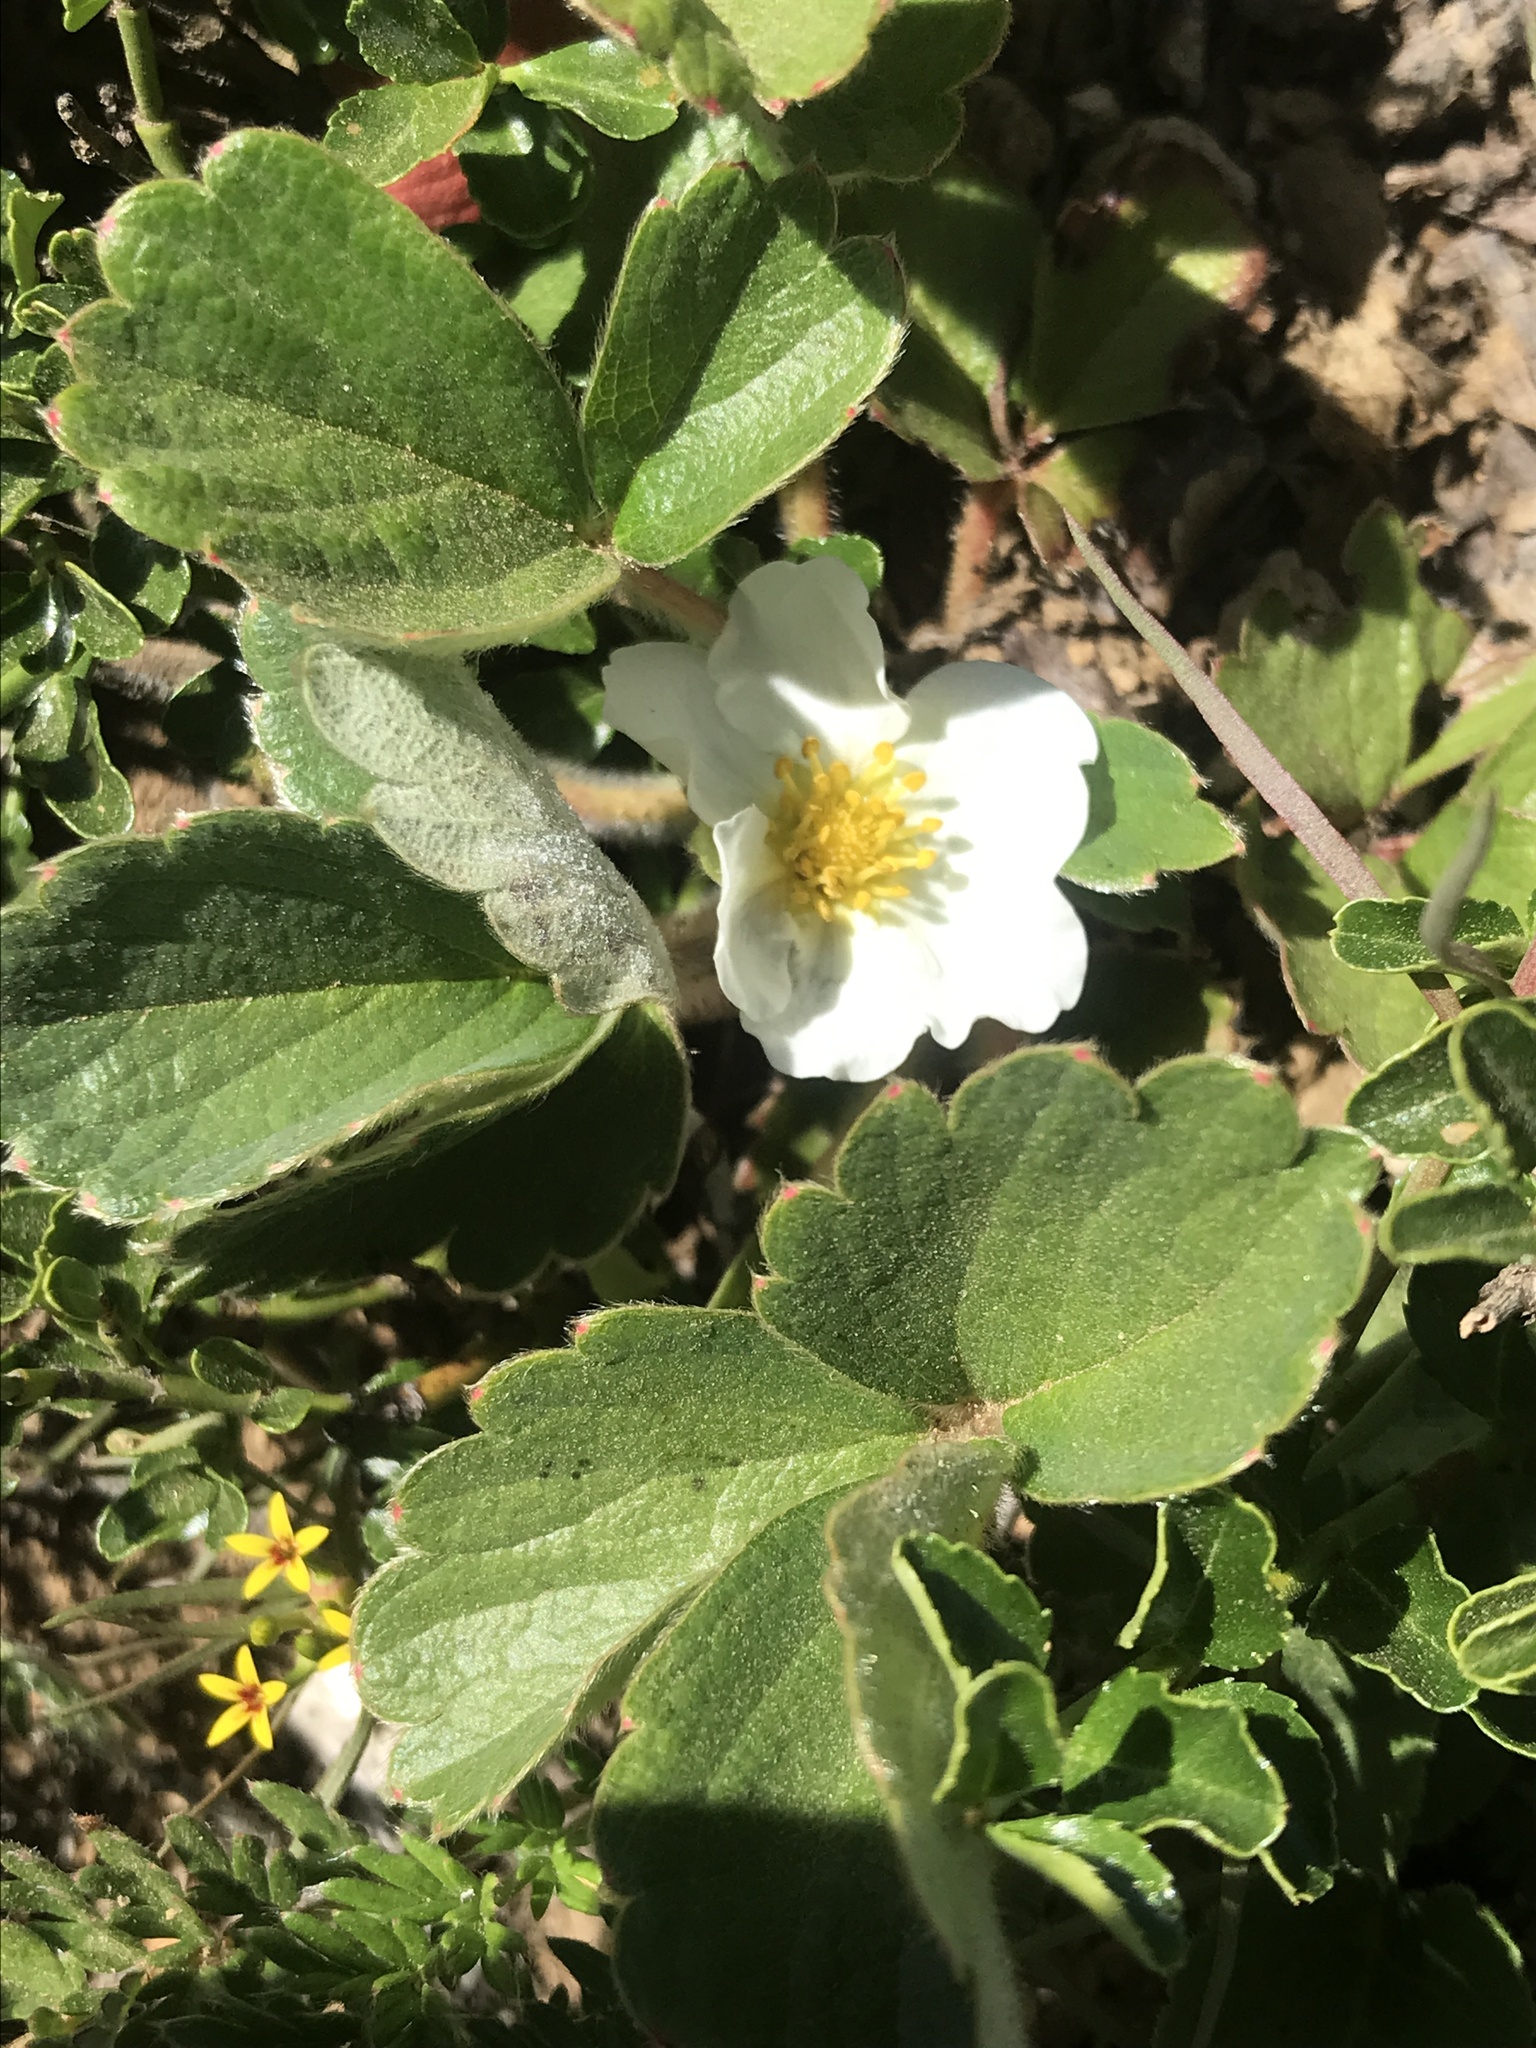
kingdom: Plantae
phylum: Tracheophyta
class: Magnoliopsida
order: Rosales
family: Rosaceae
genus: Fragaria
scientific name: Fragaria chiloensis
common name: Beach strawberry
